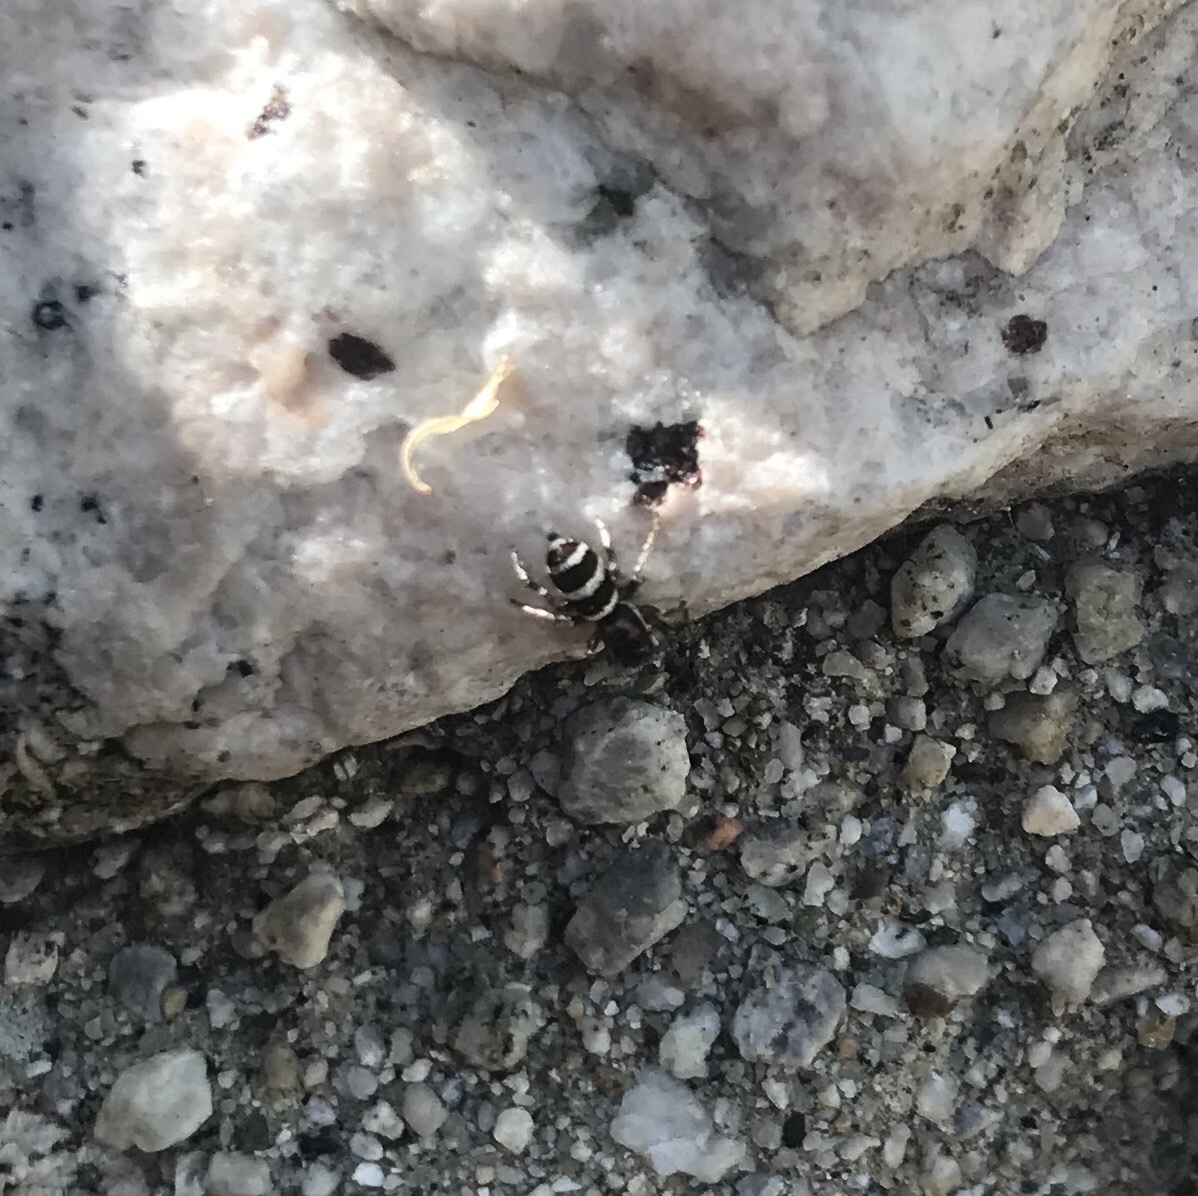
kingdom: Animalia
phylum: Arthropoda
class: Arachnida
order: Araneae
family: Salticidae
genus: Salticus
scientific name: Salticus palpalis
